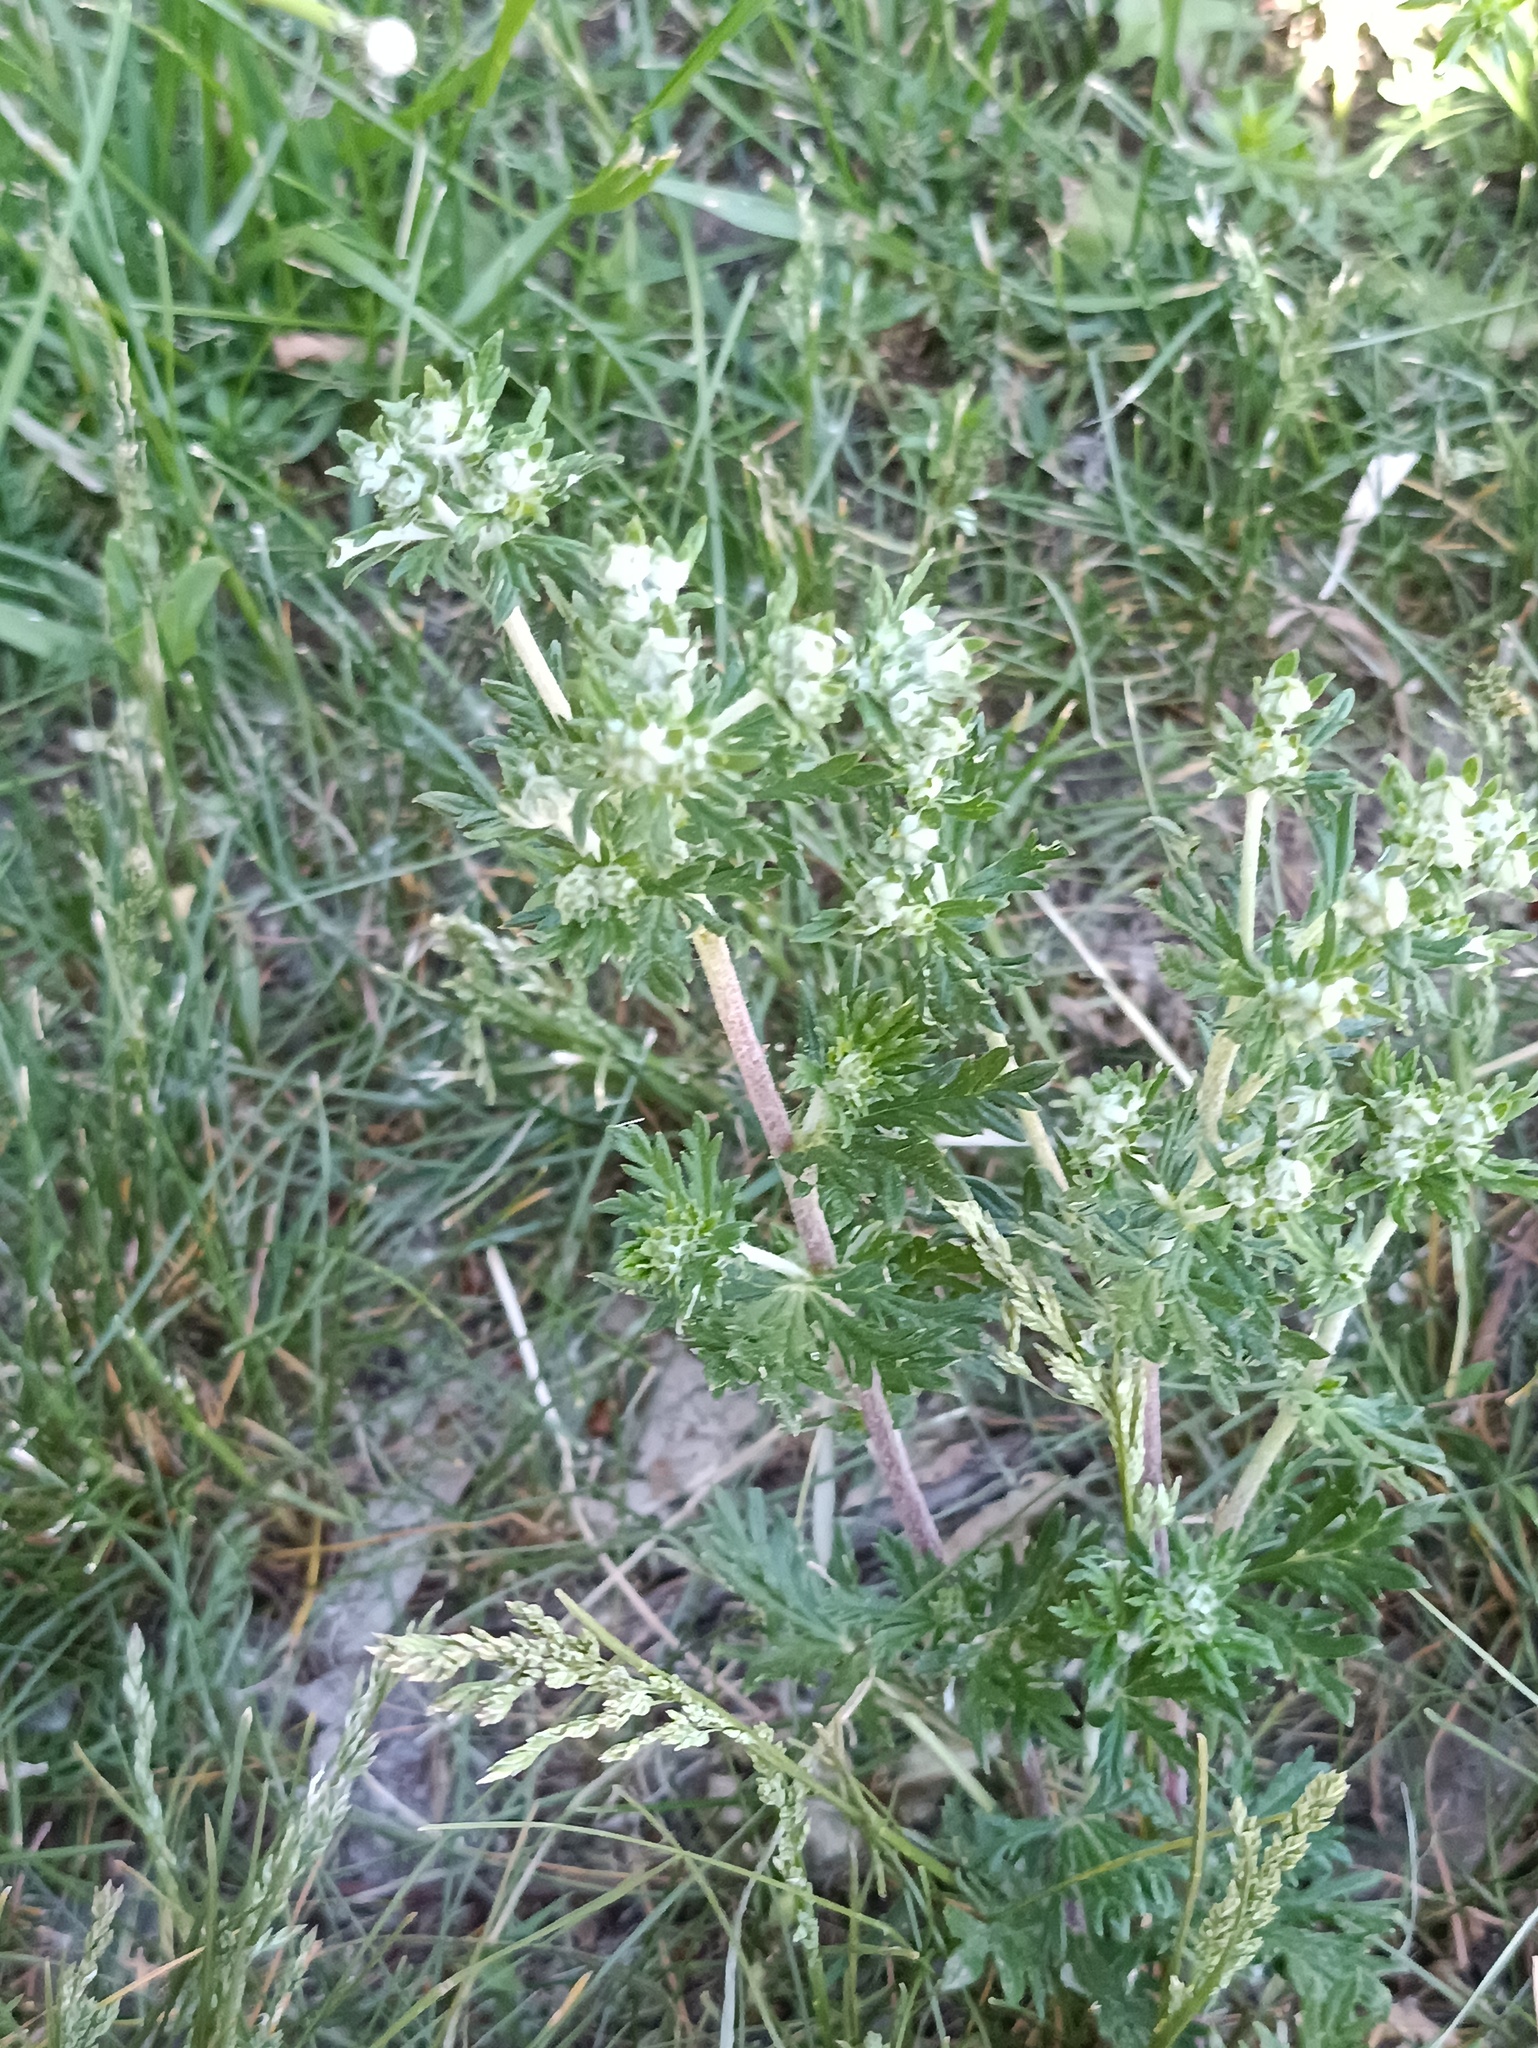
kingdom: Plantae
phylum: Tracheophyta
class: Magnoliopsida
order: Rosales
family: Rosaceae
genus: Potentilla
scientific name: Potentilla argentea
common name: Hoary cinquefoil
